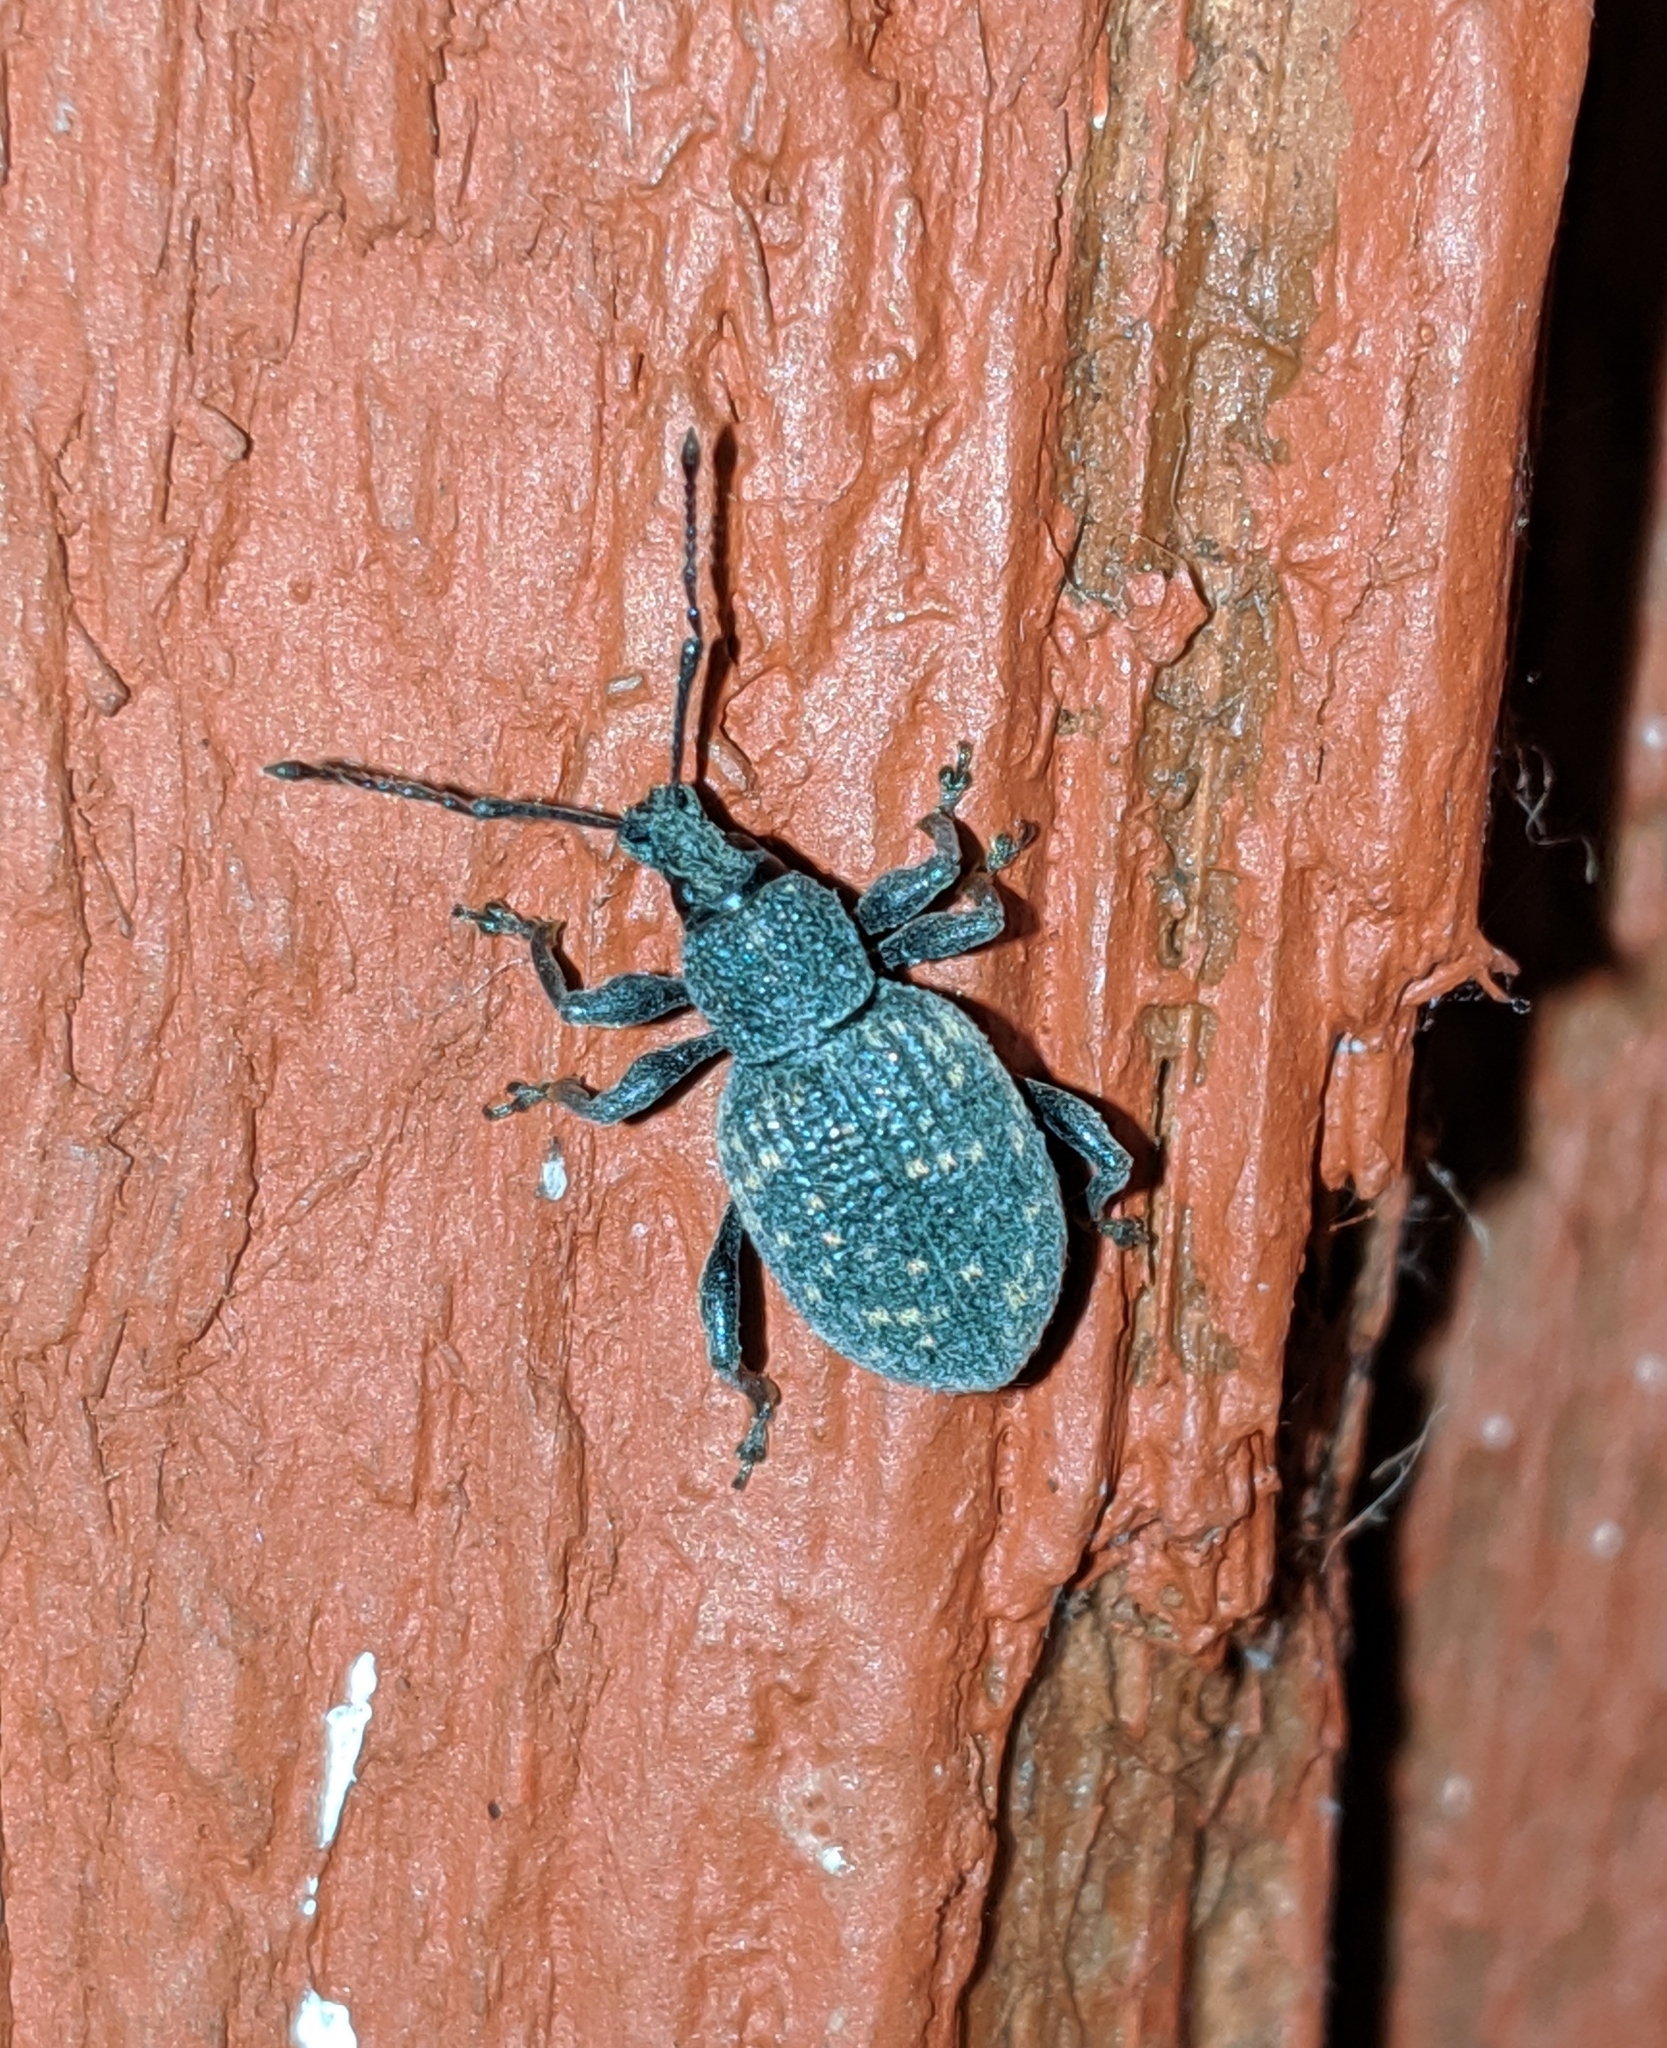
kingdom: Animalia
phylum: Arthropoda
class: Insecta
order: Coleoptera
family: Curculionidae
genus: Otiorhynchus
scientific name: Otiorhynchus sulcatus
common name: Black vine weevil
